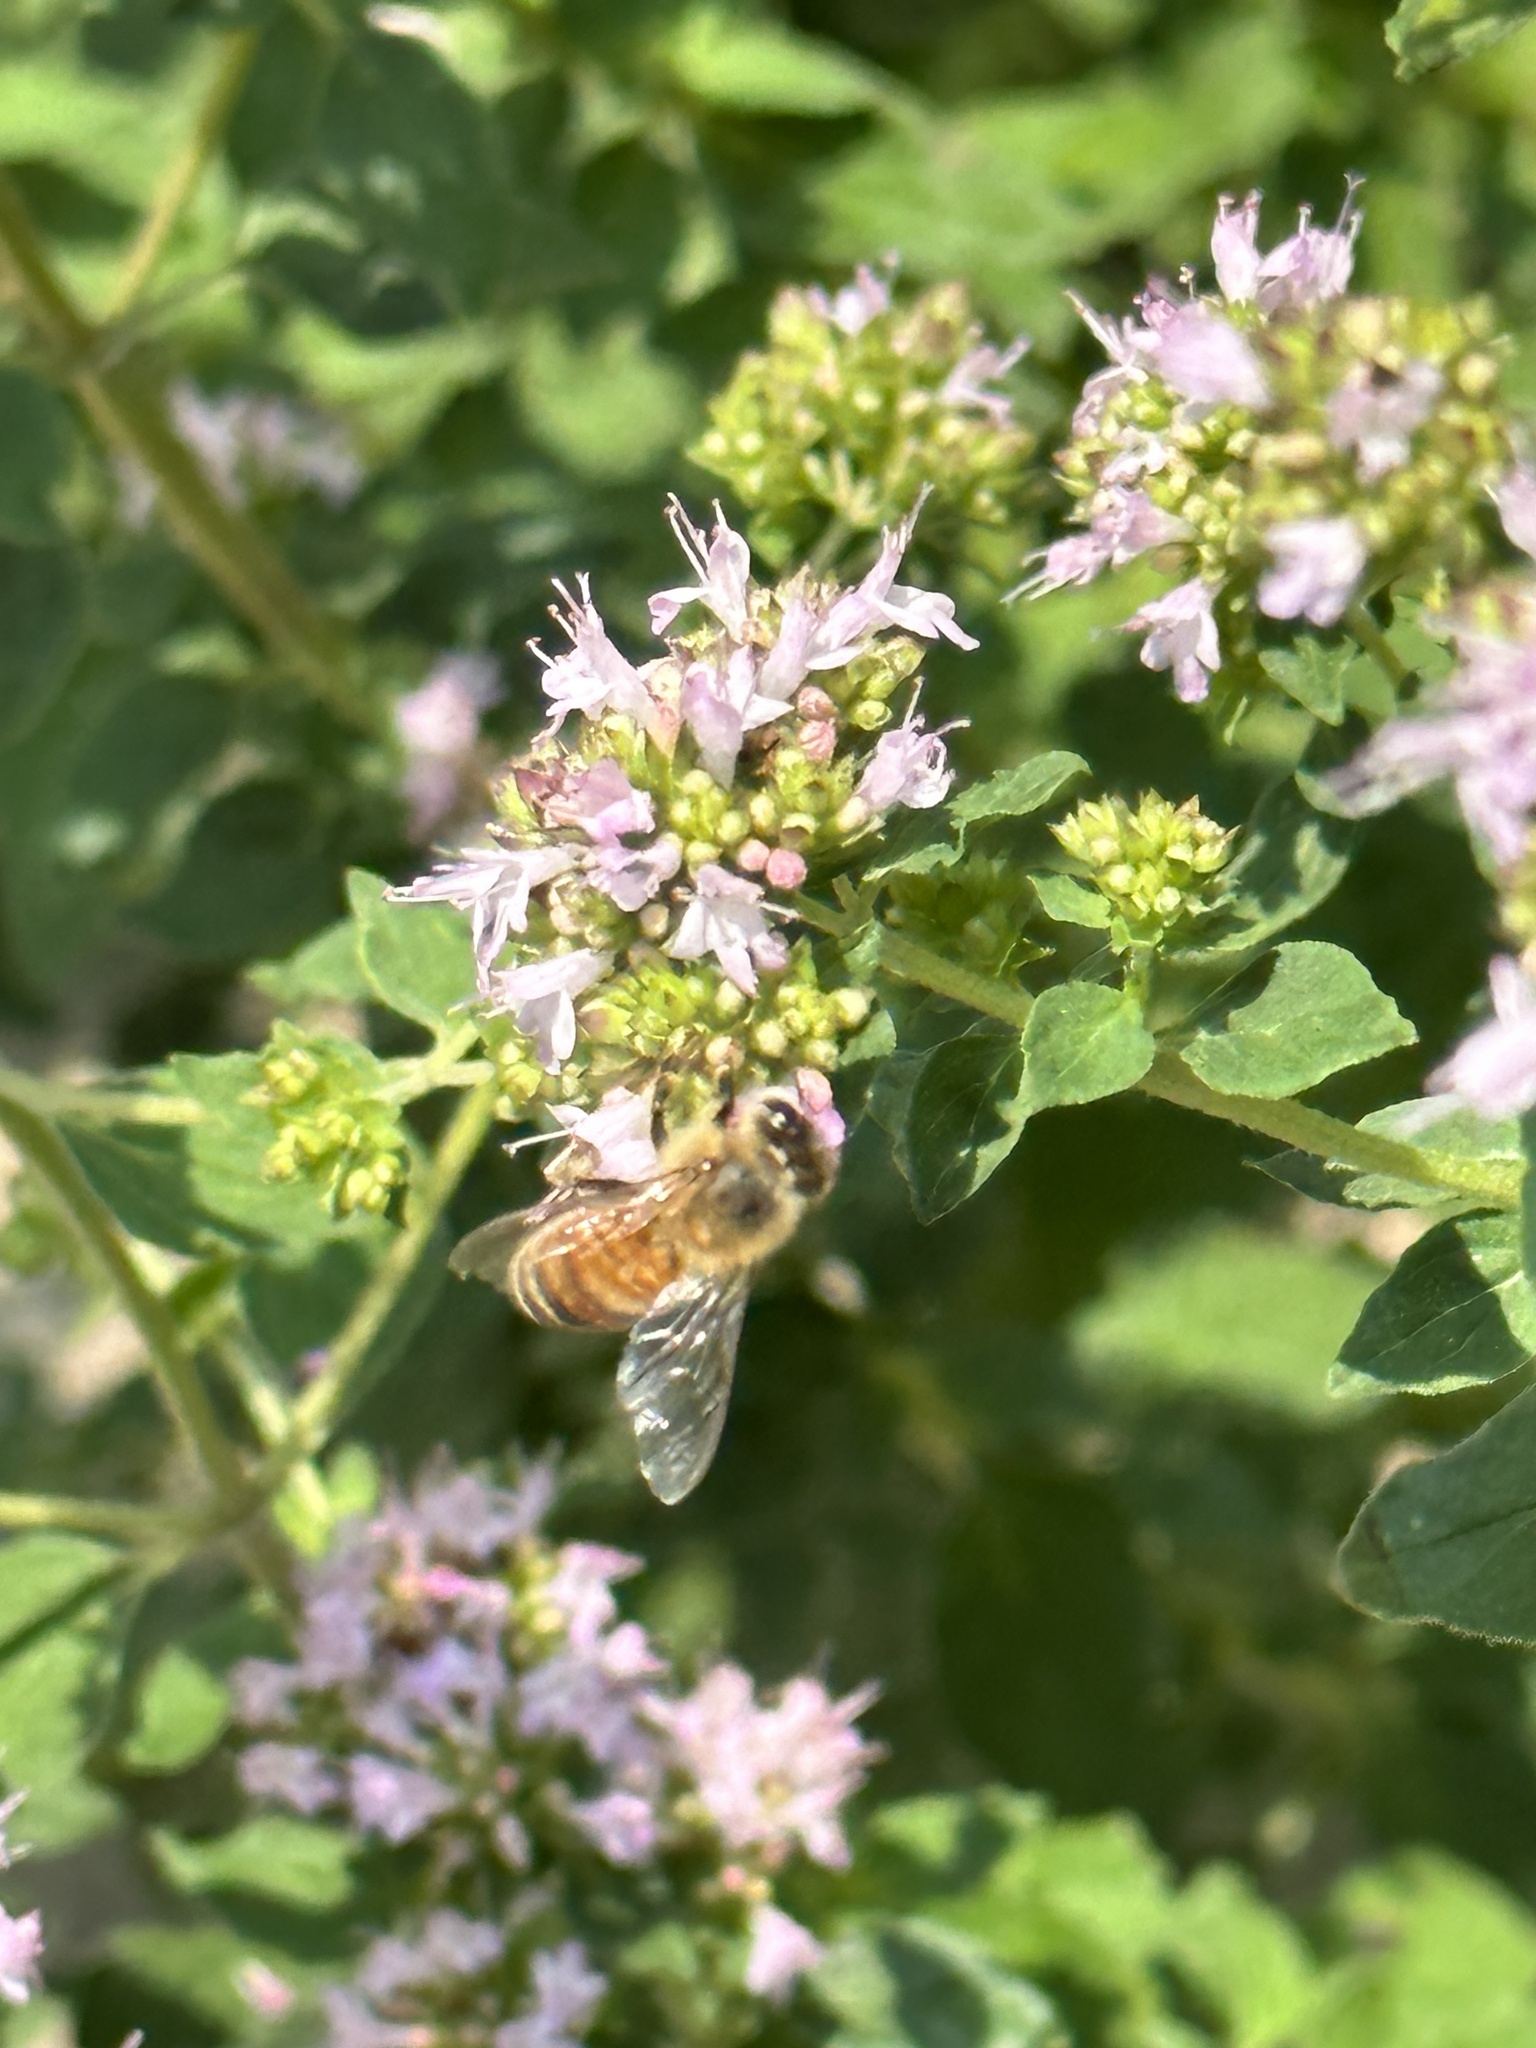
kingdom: Animalia
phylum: Arthropoda
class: Insecta
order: Hymenoptera
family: Apidae
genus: Apis
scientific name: Apis mellifera
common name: Honey bee
